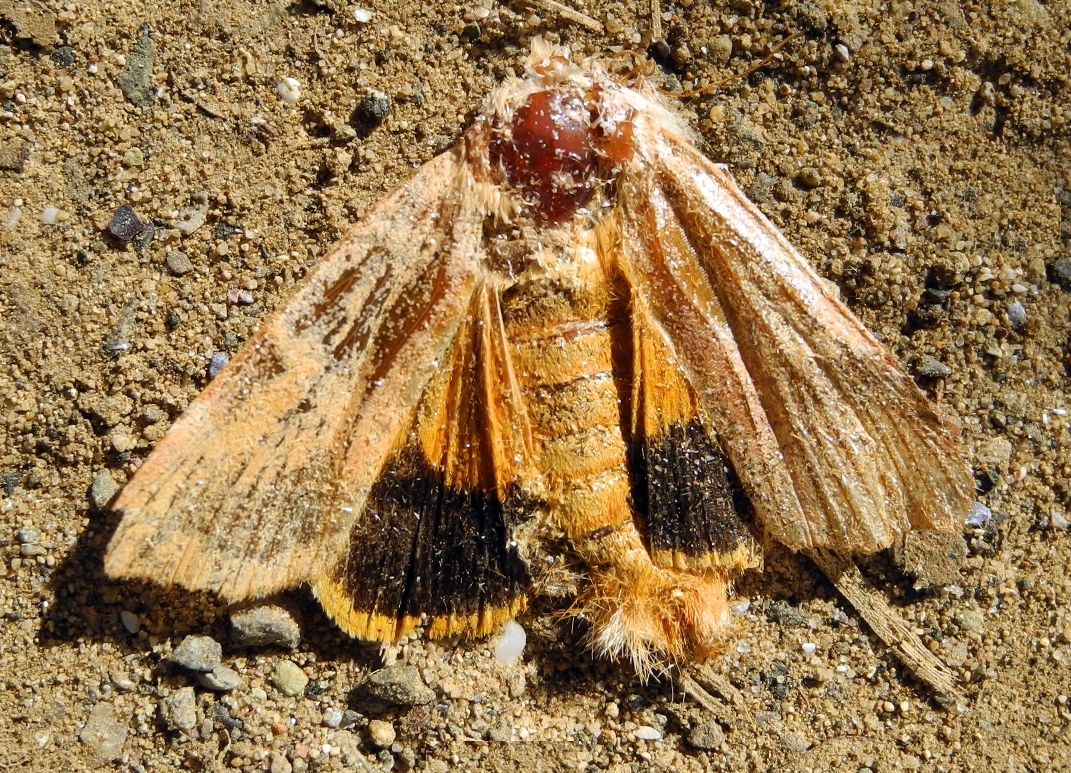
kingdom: Animalia
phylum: Arthropoda
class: Insecta
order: Lepidoptera
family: Noctuidae
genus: Noctua
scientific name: Noctua fimbriata
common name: Broad-bordered yellow underwing
